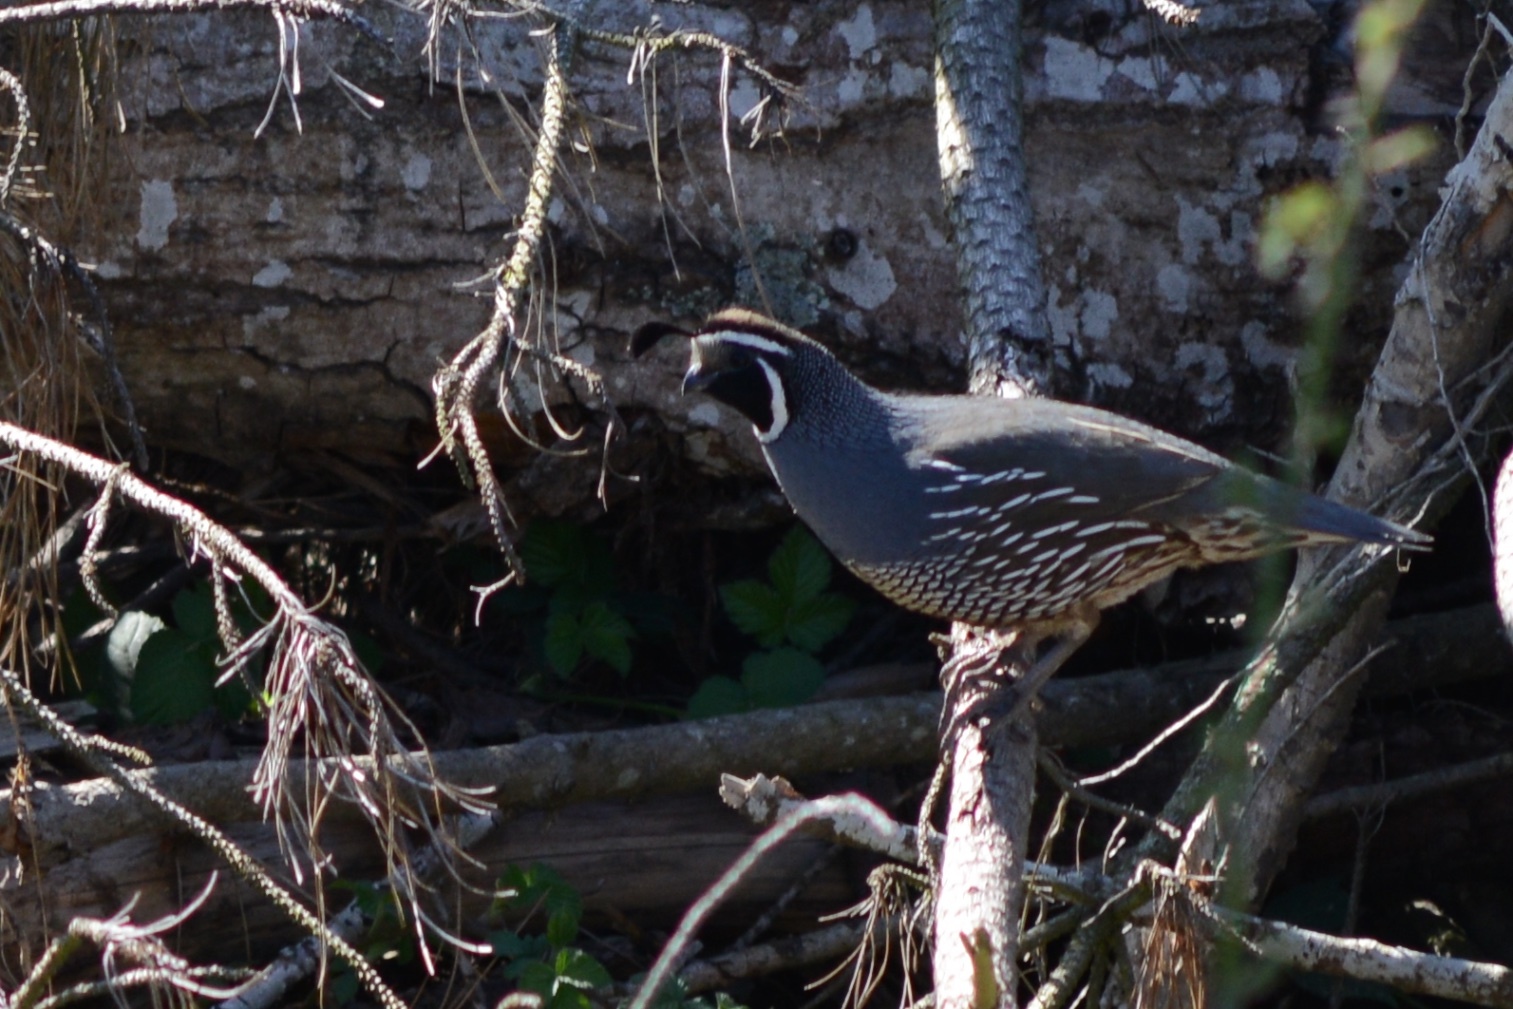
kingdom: Animalia
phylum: Chordata
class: Aves
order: Galliformes
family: Odontophoridae
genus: Callipepla
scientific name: Callipepla californica
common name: California quail
